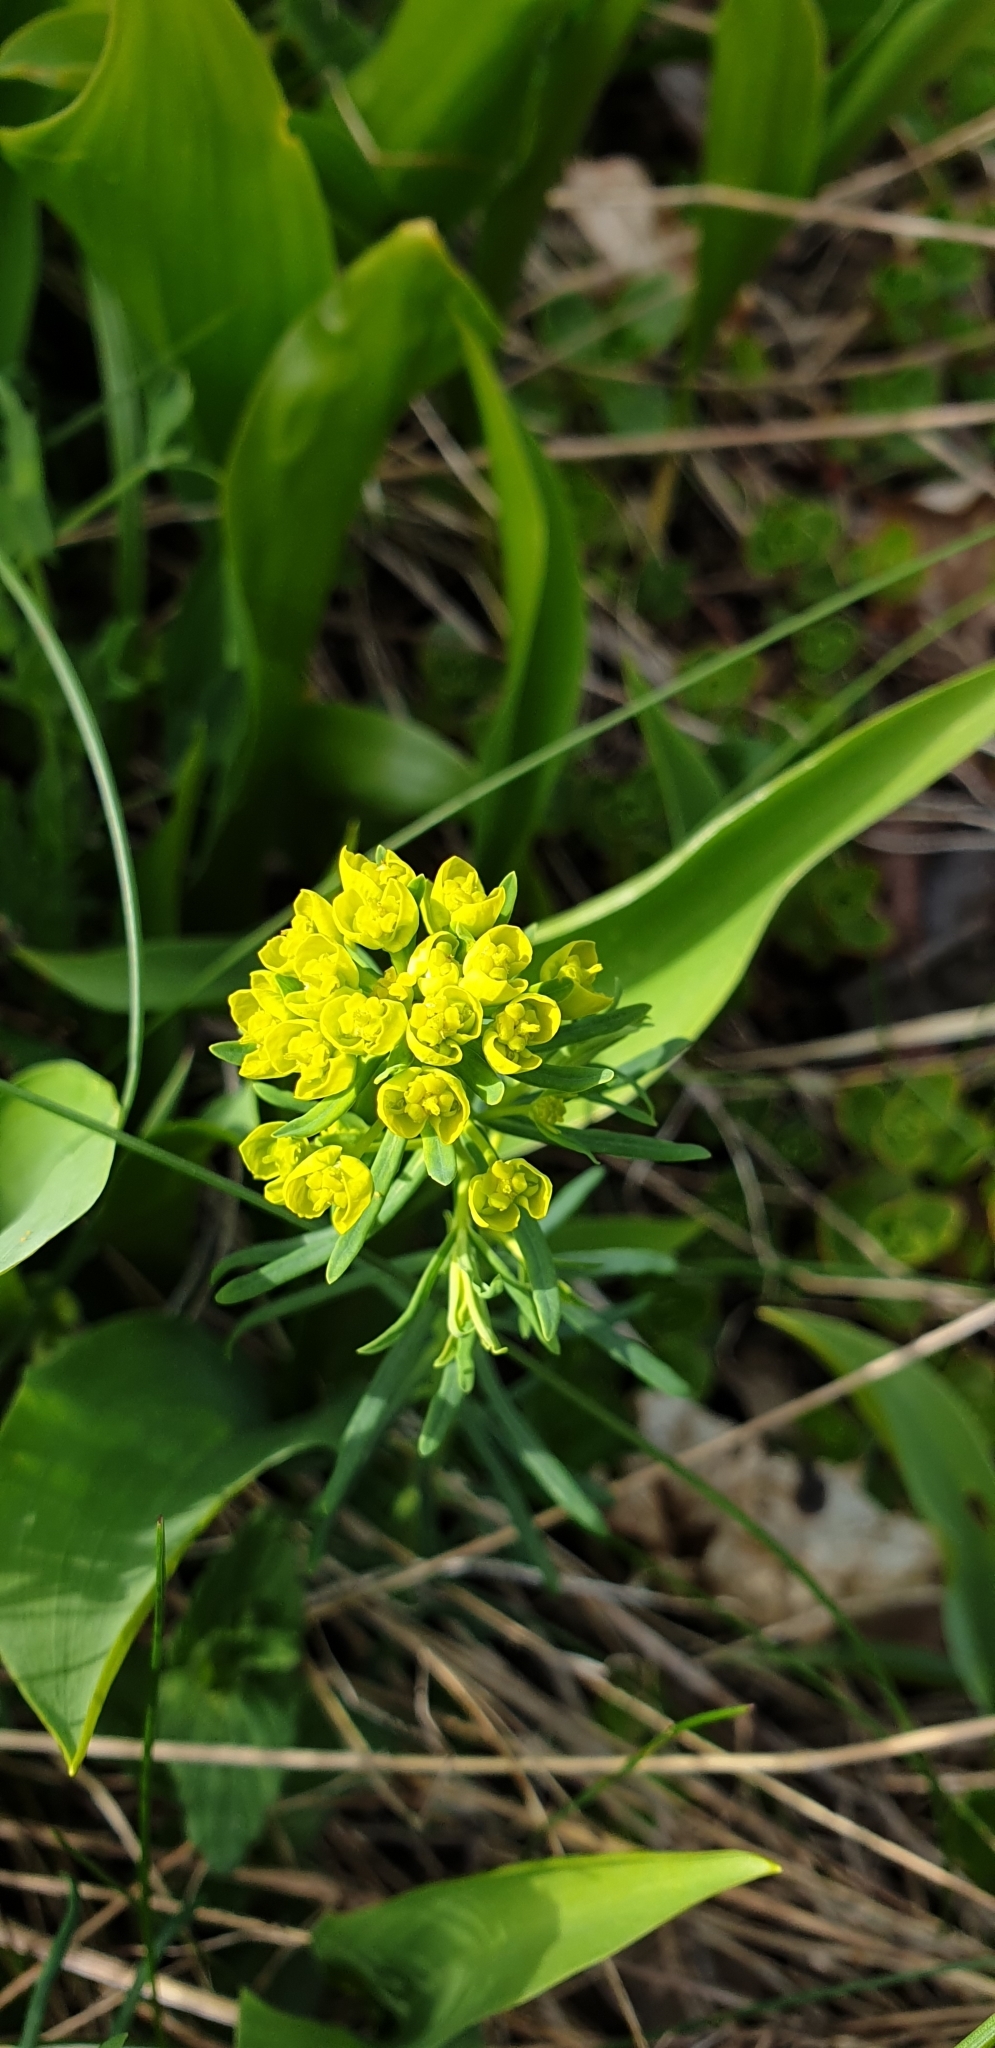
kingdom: Plantae
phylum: Tracheophyta
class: Magnoliopsida
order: Malpighiales
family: Euphorbiaceae
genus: Euphorbia
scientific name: Euphorbia cyparissias
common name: Cypress spurge
